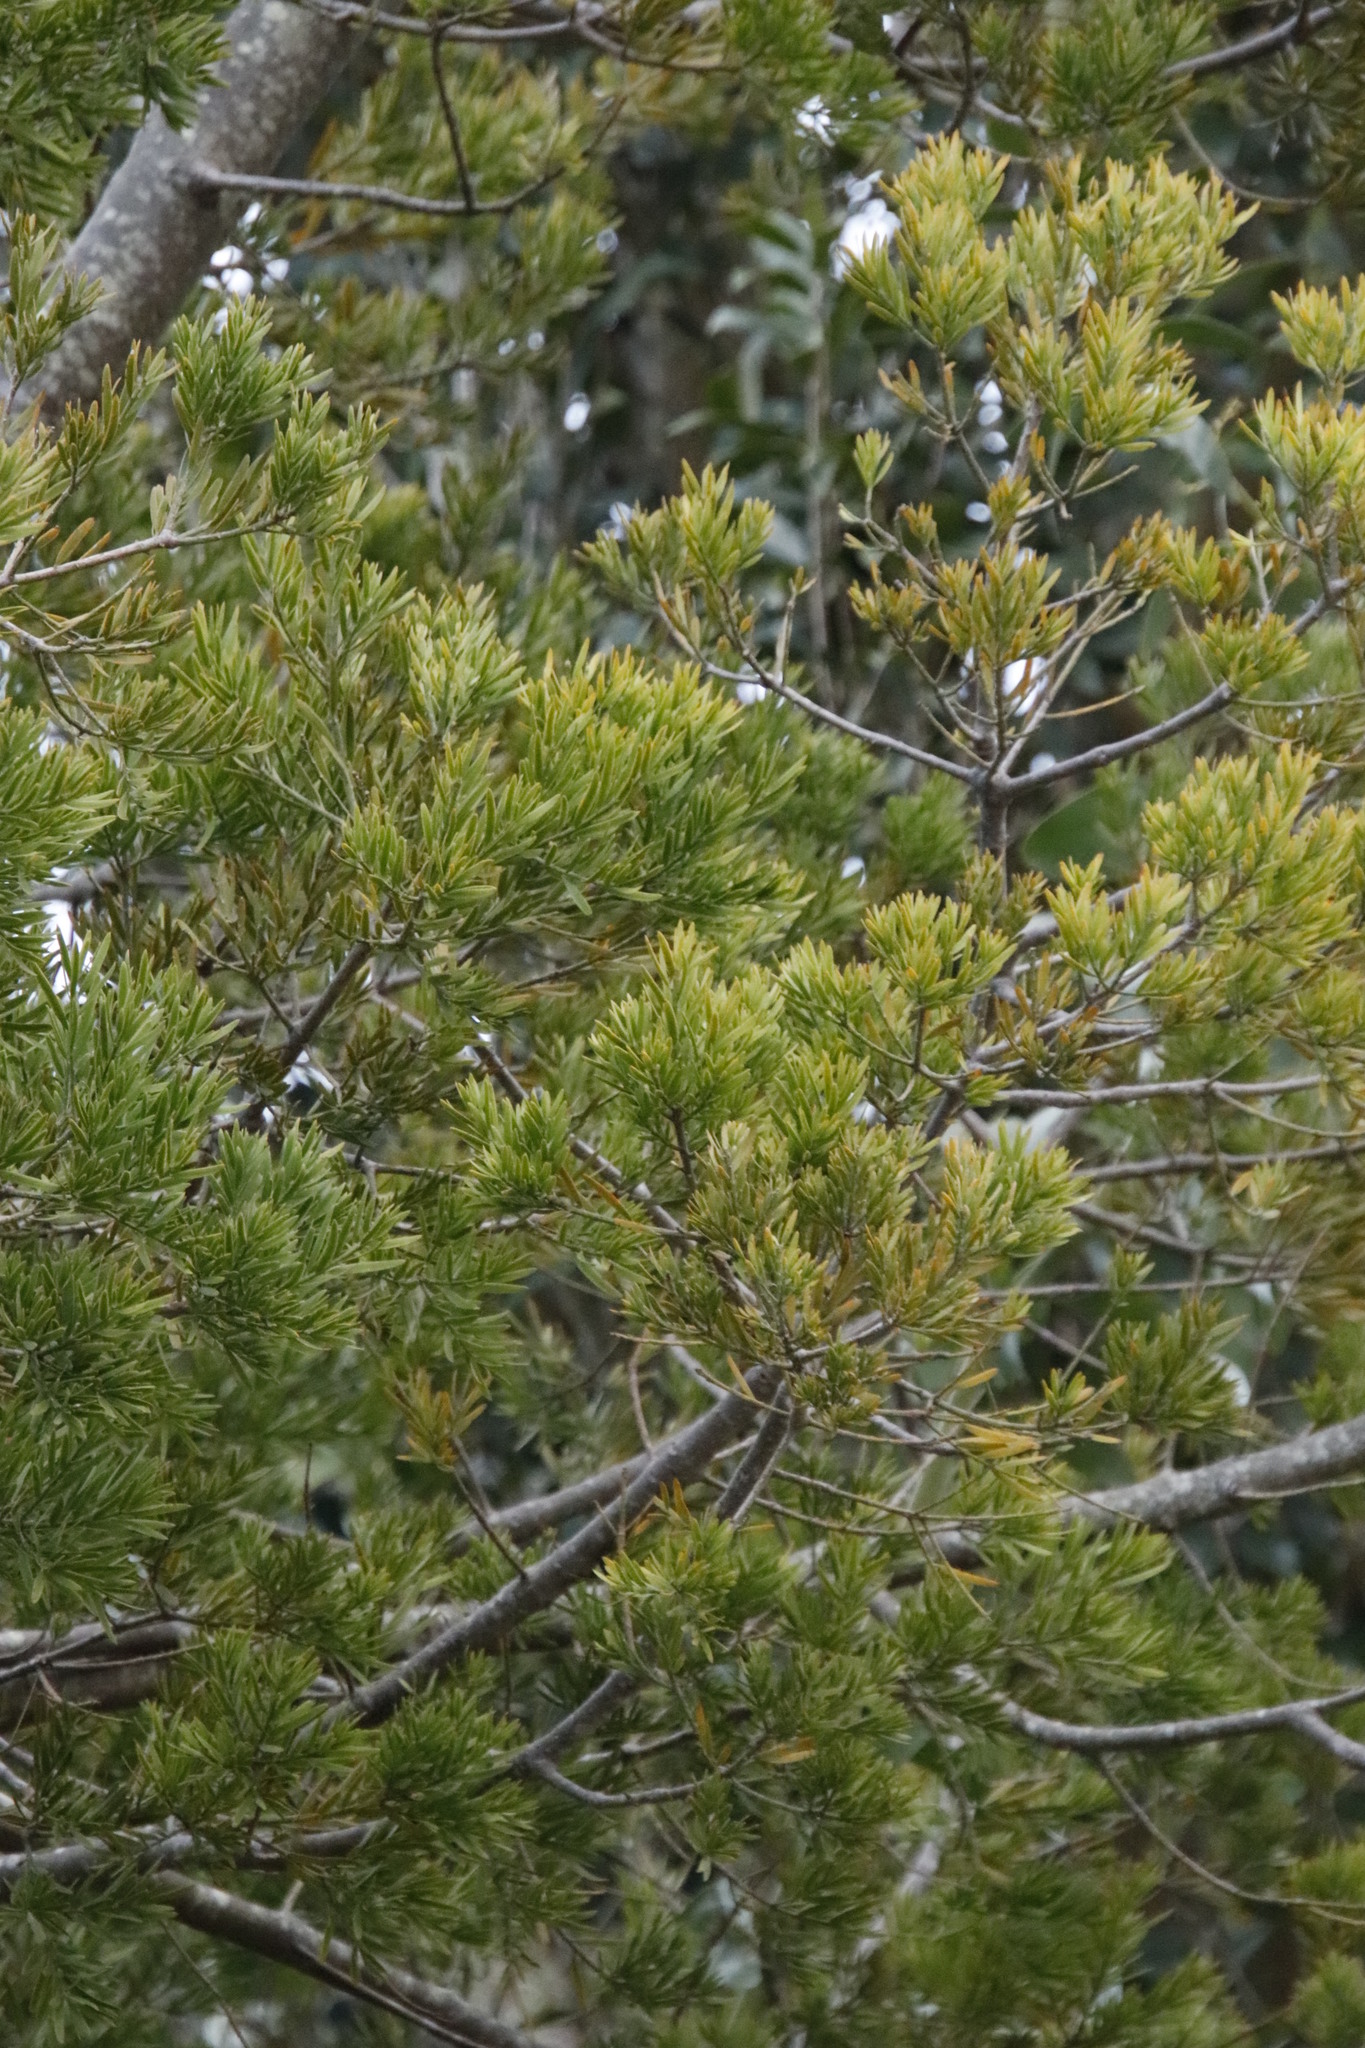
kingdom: Plantae
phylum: Tracheophyta
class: Pinopsida
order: Pinales
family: Podocarpaceae
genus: Afrocarpus
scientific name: Afrocarpus falcatus
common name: Bastard yellowwood
